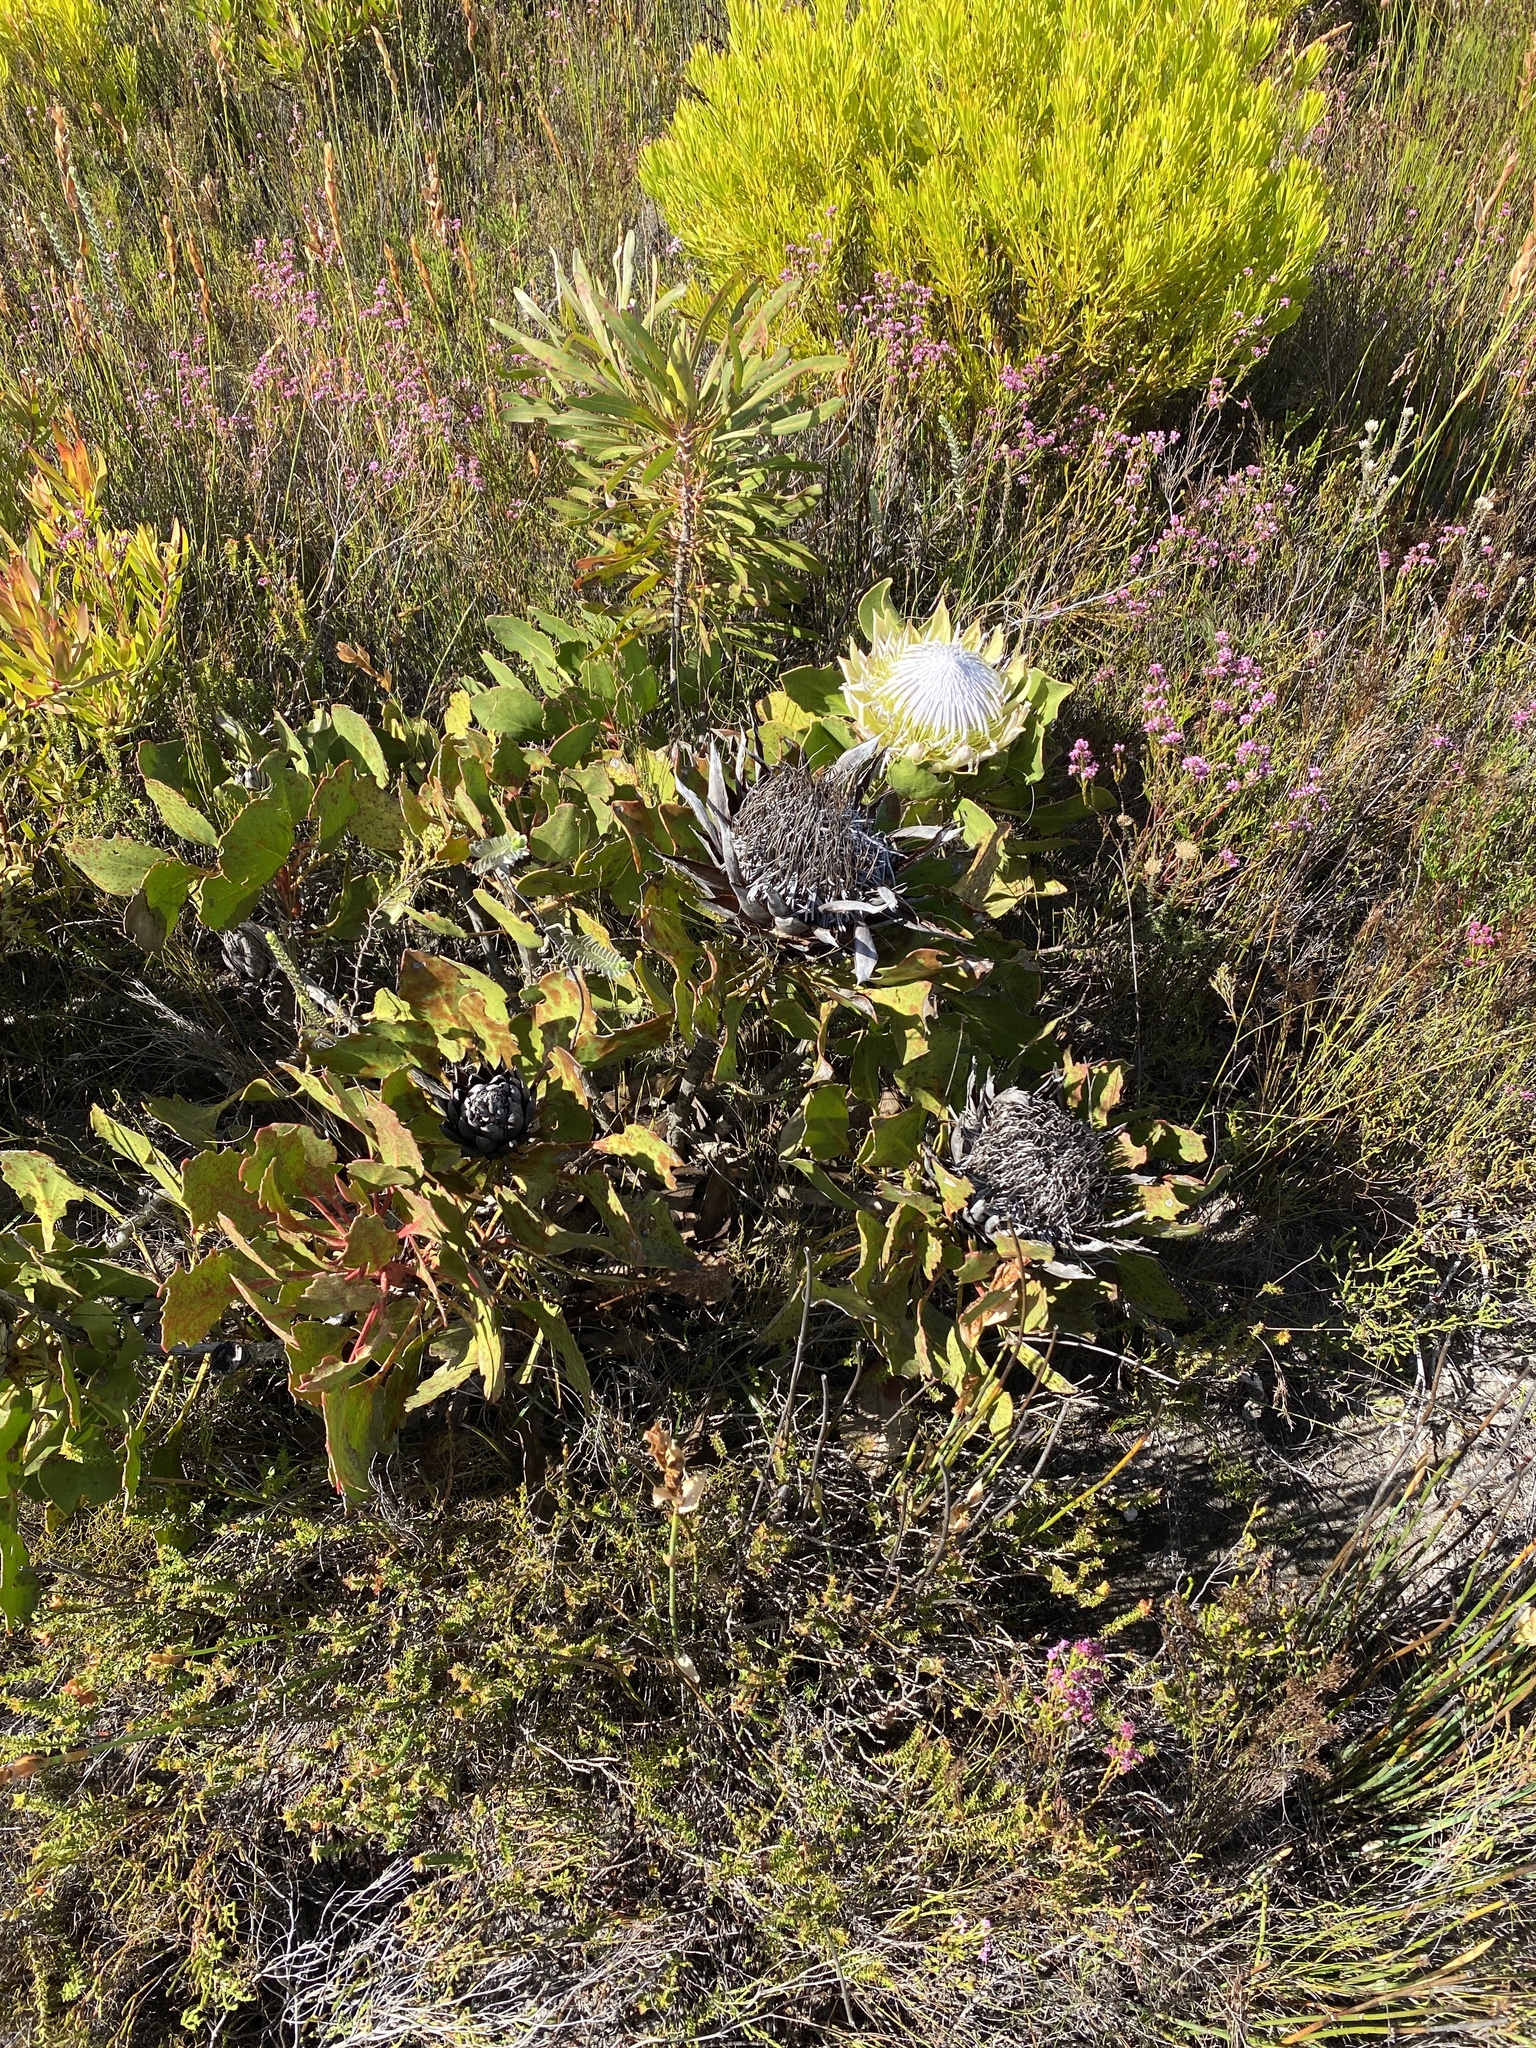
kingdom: Plantae
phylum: Tracheophyta
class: Magnoliopsida
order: Proteales
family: Proteaceae
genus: Protea
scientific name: Protea cynaroides
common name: King protea
